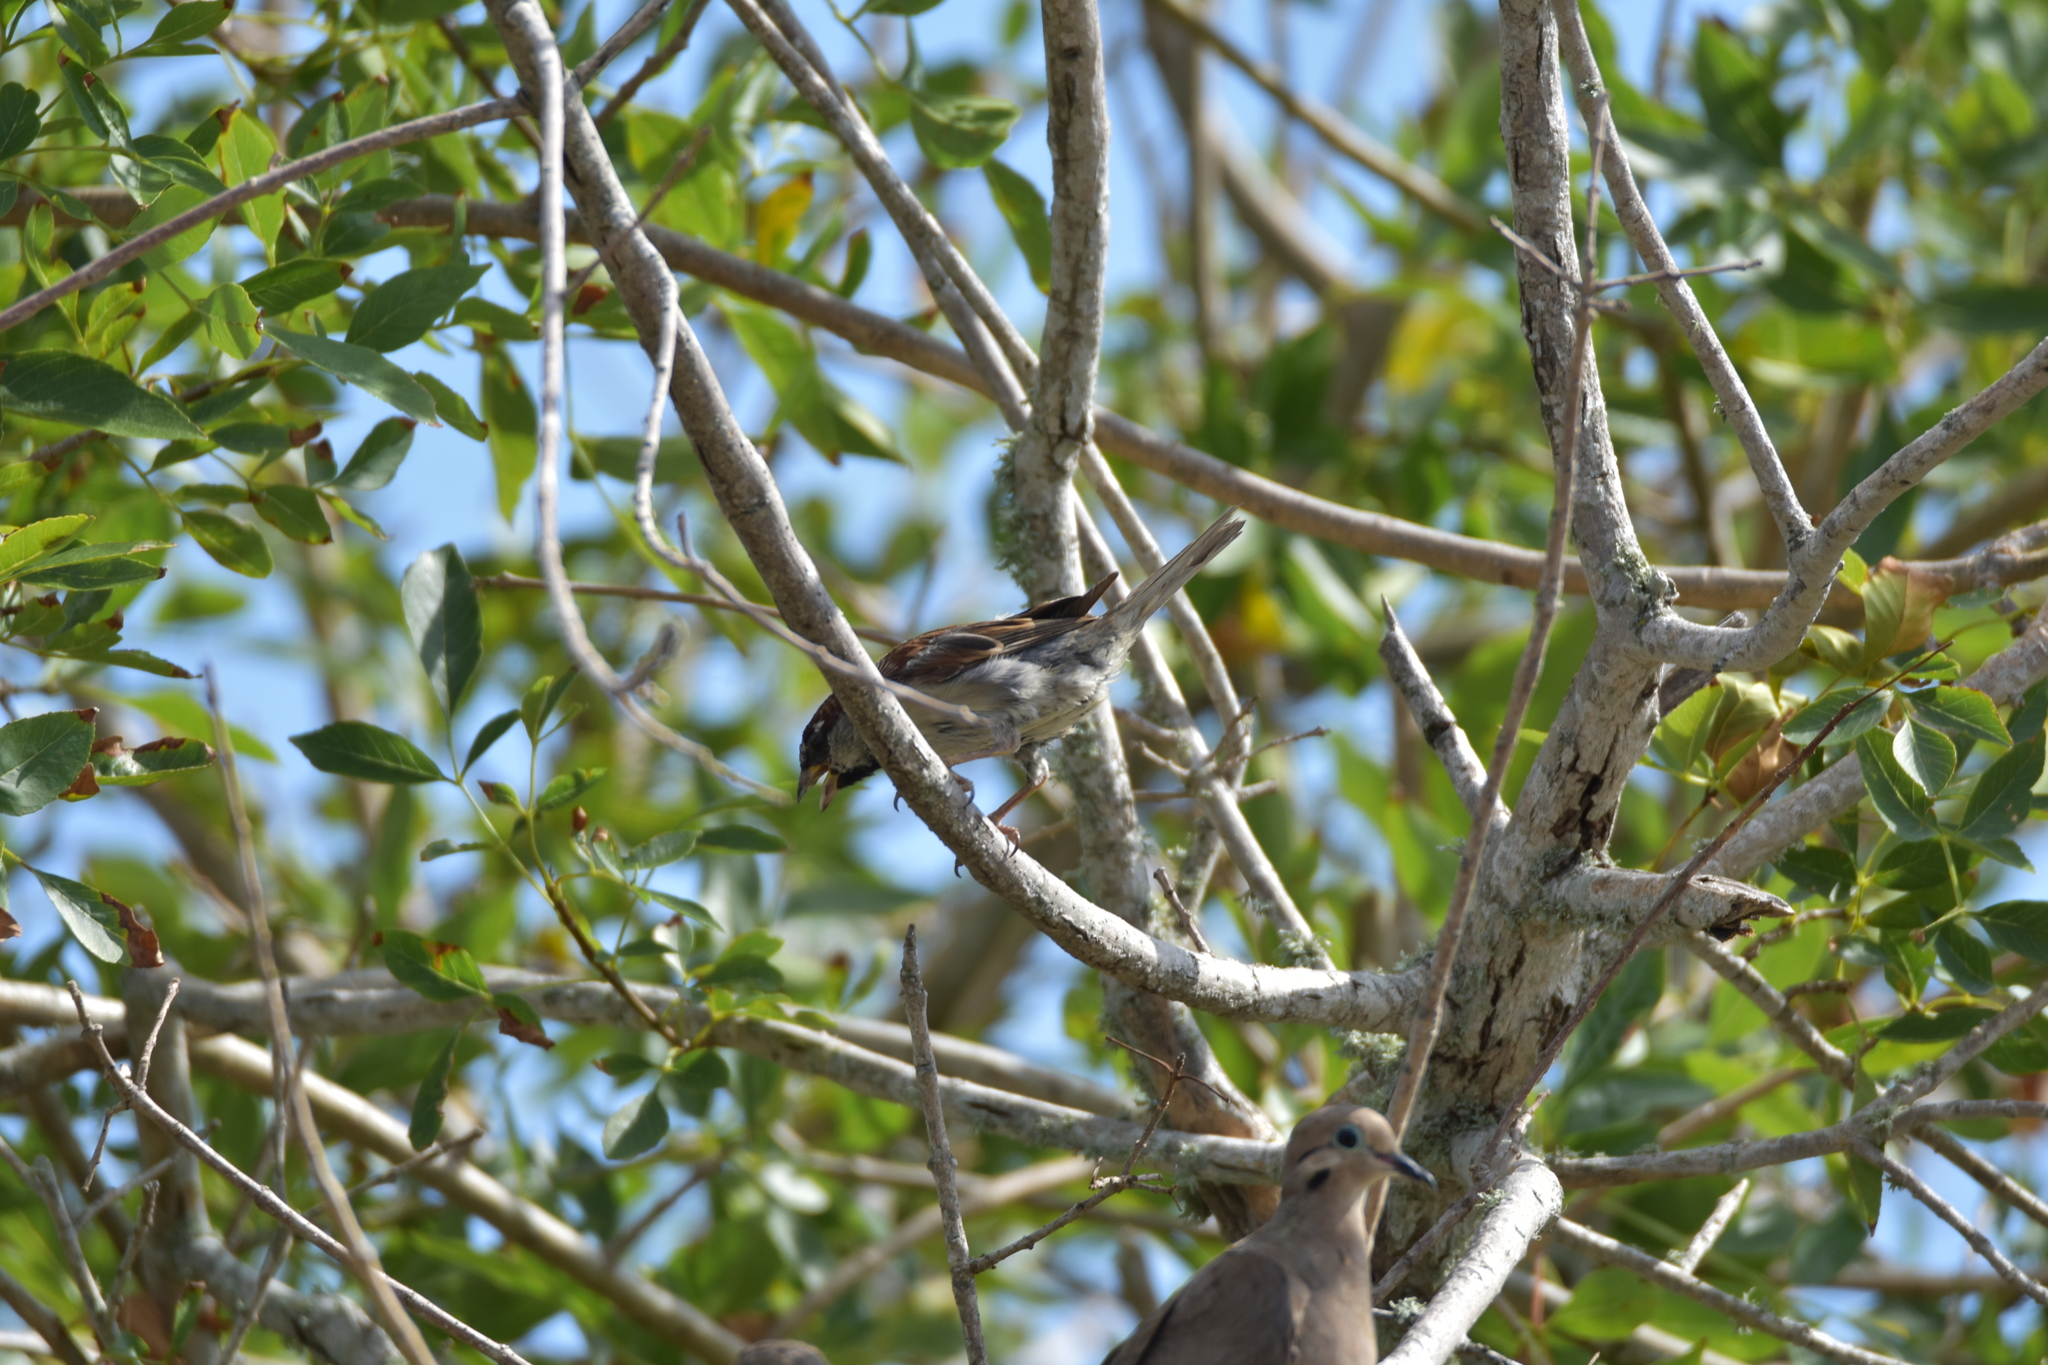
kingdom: Animalia
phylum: Chordata
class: Aves
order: Passeriformes
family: Passeridae
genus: Passer
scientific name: Passer domesticus
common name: House sparrow
